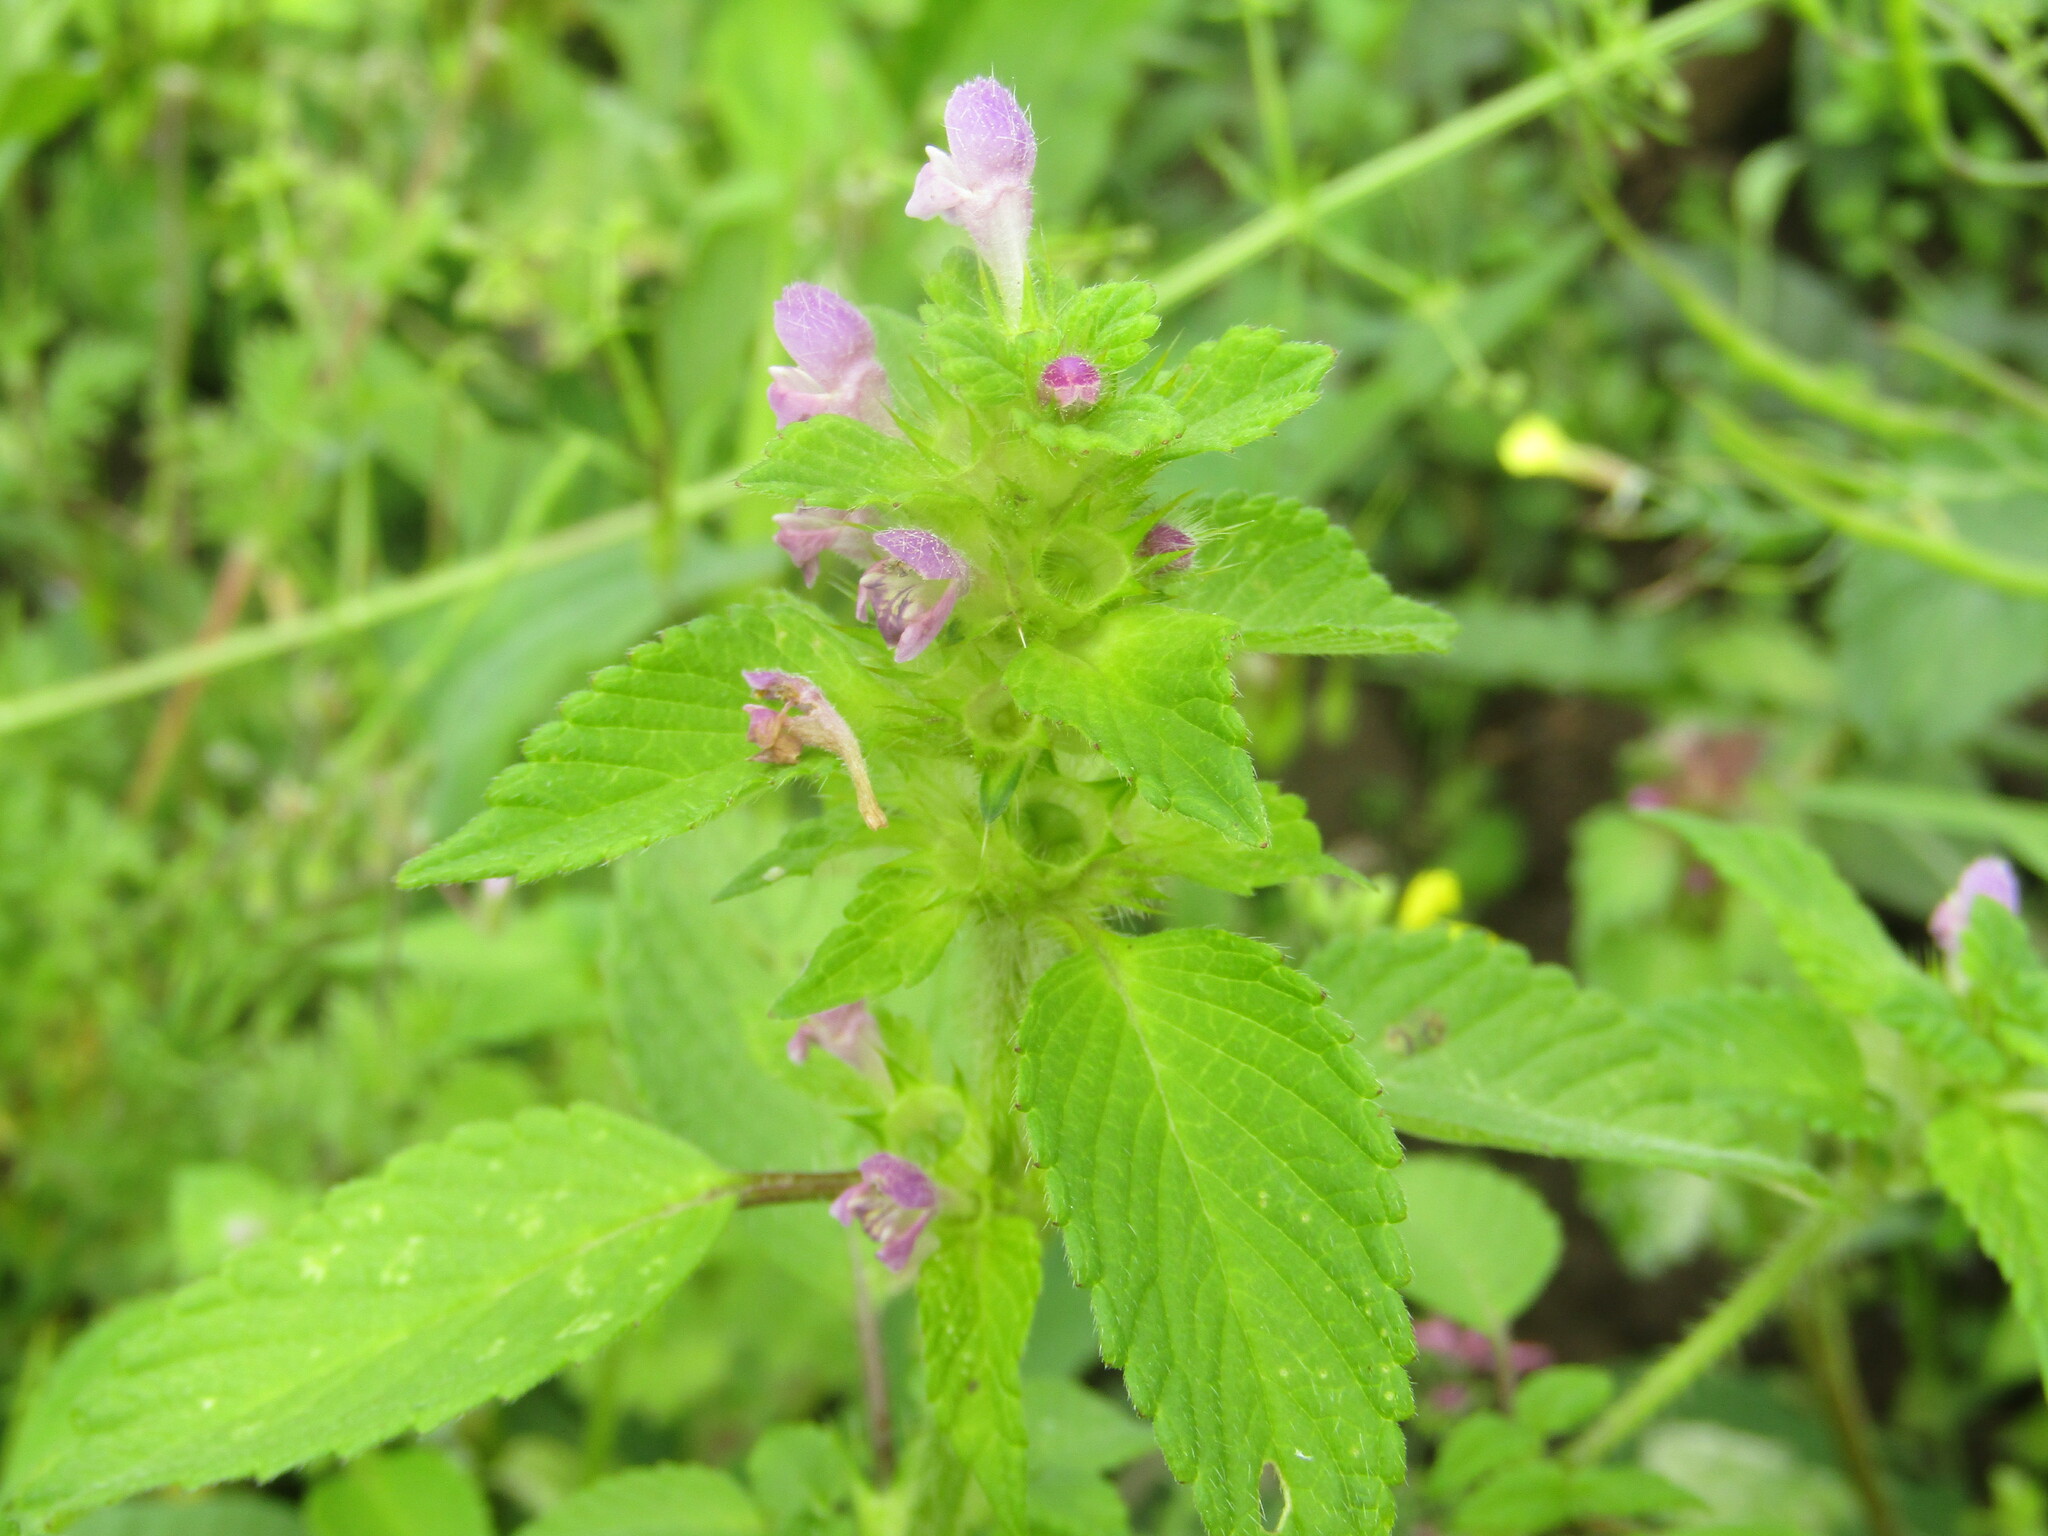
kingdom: Plantae
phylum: Tracheophyta
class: Magnoliopsida
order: Lamiales
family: Lamiaceae
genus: Galeopsis
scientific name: Galeopsis bifida
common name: Bifid hemp-nettle
